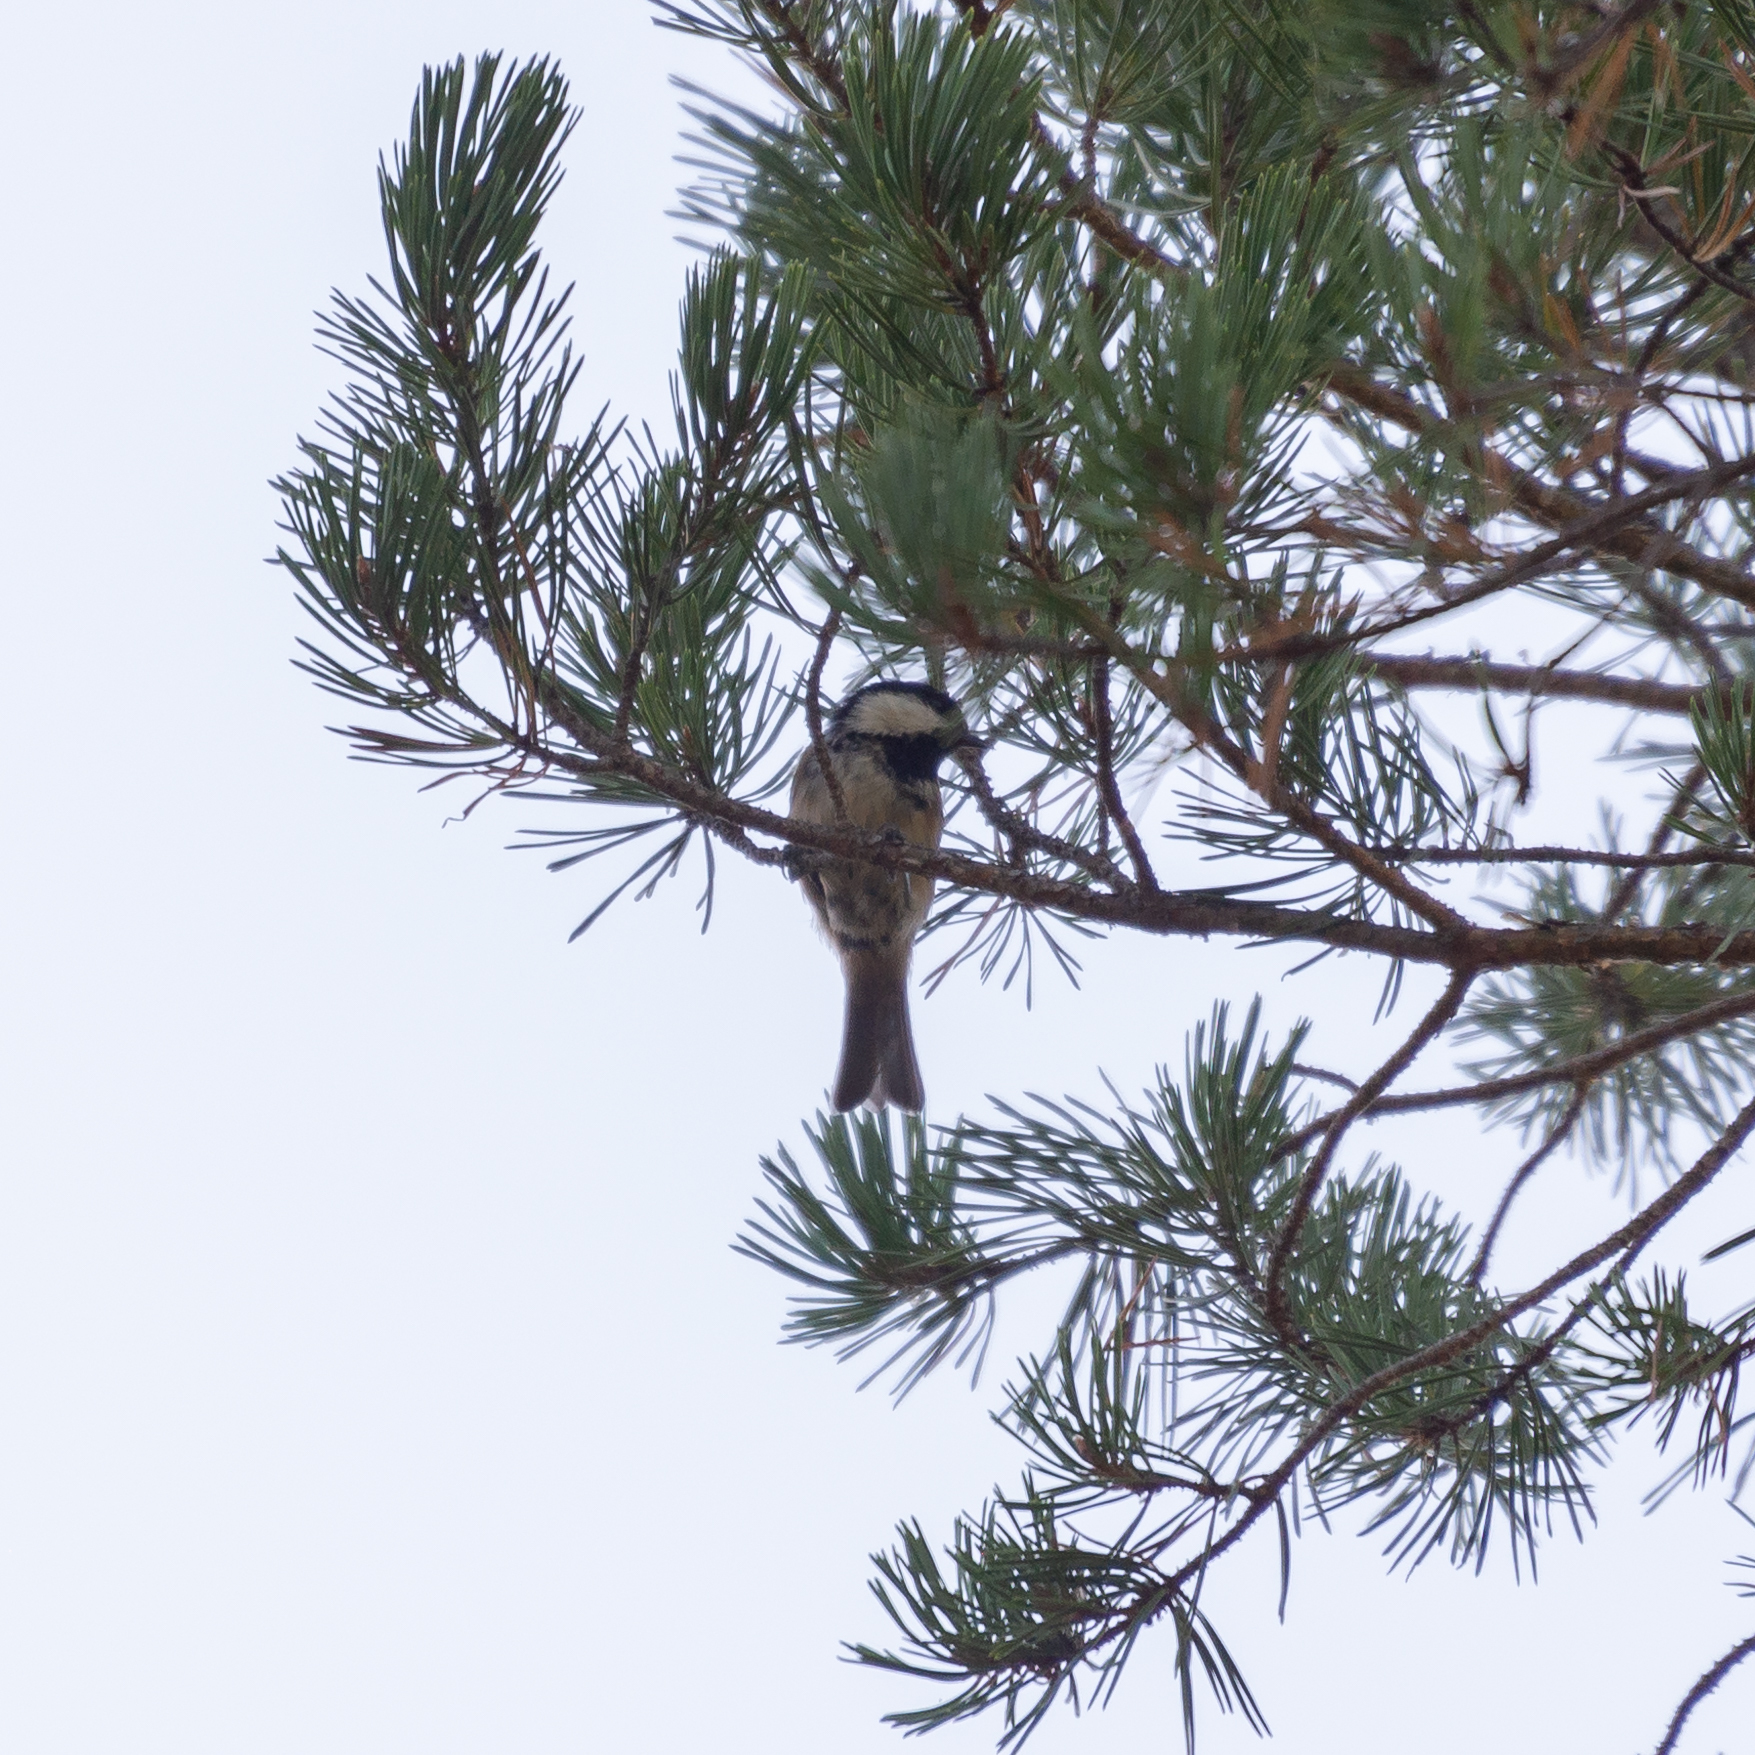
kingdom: Animalia
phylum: Chordata
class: Aves
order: Passeriformes
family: Paridae
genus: Periparus
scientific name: Periparus ater
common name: Coal tit
